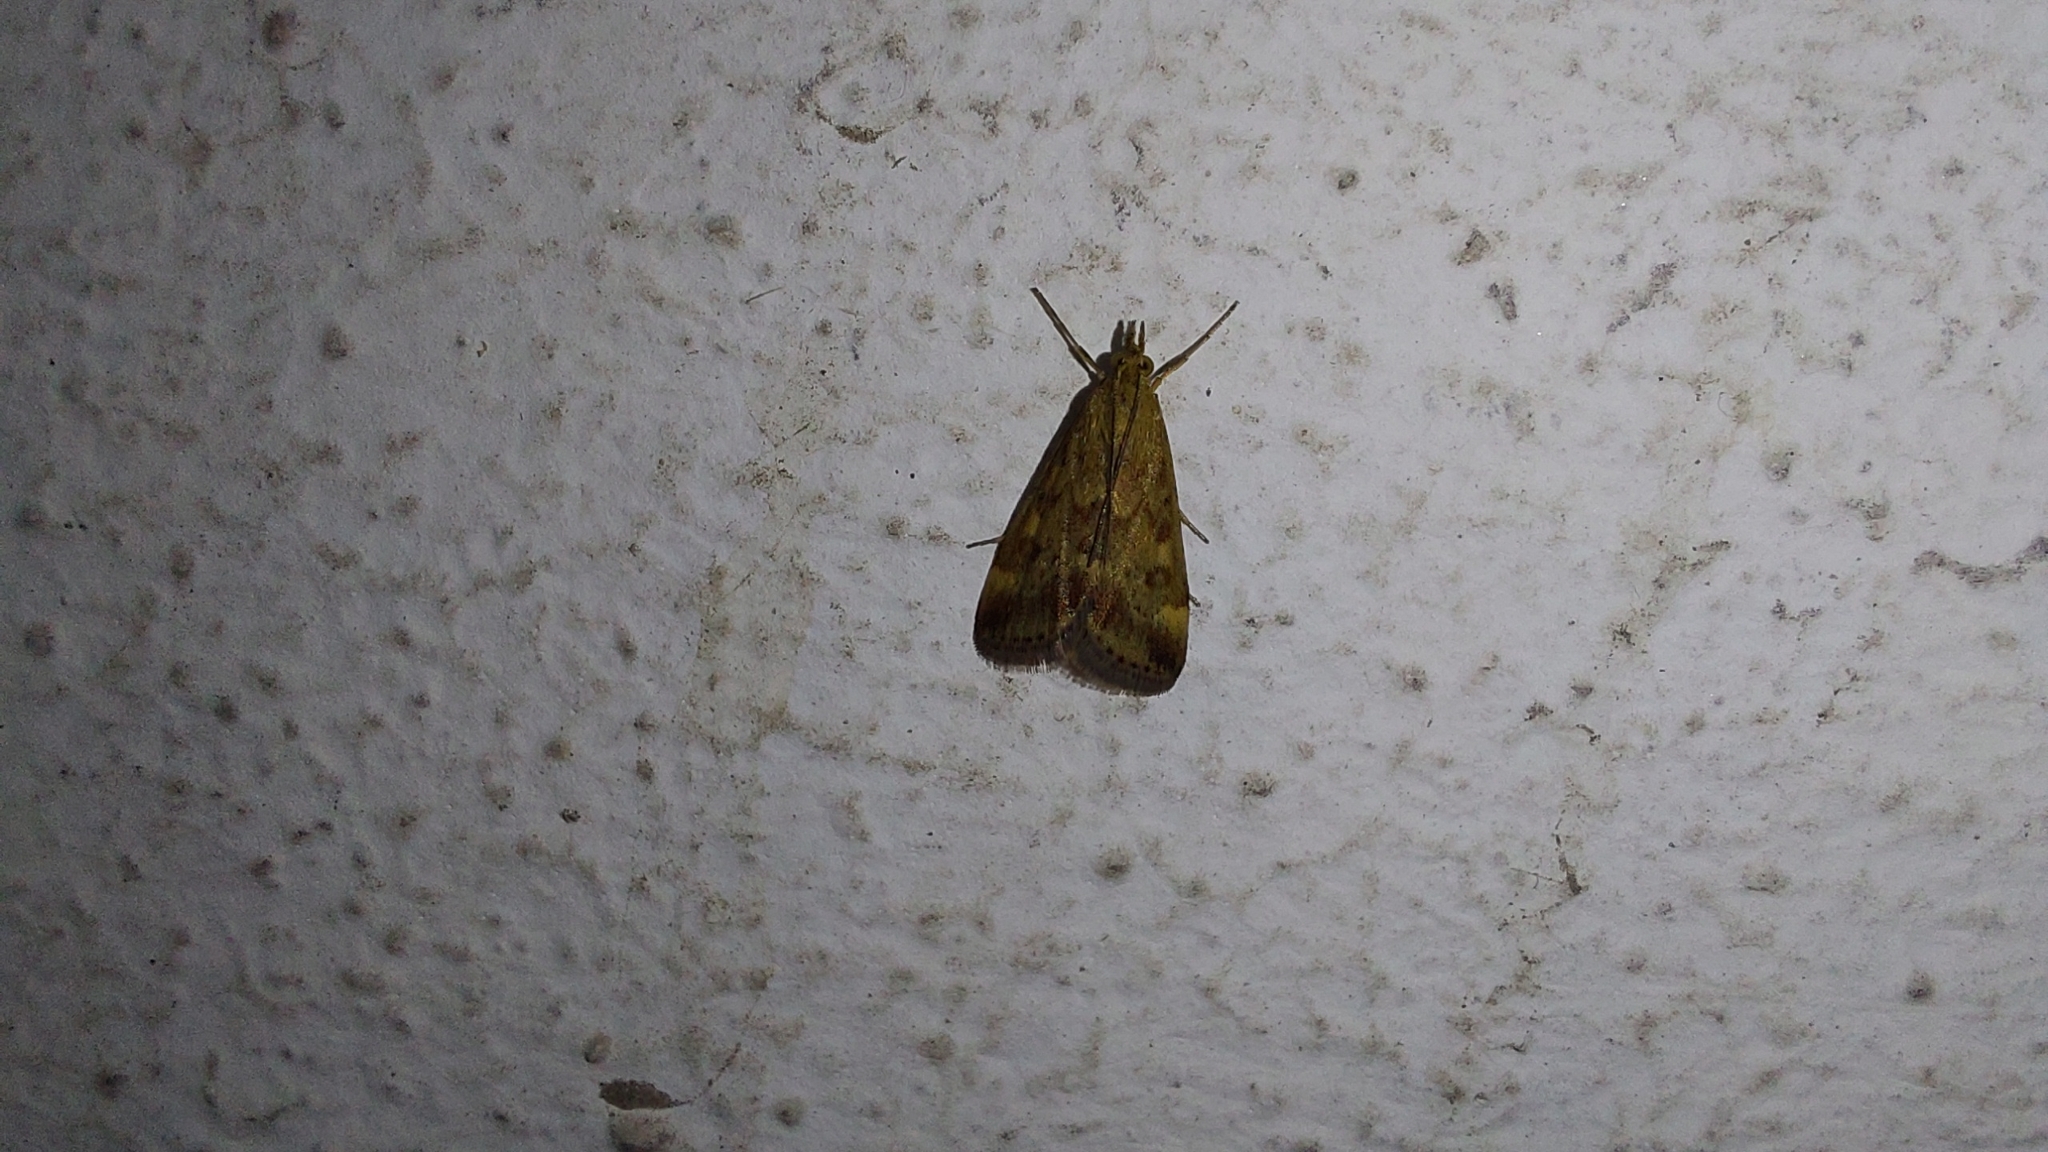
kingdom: Animalia
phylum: Arthropoda
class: Insecta
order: Lepidoptera
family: Crambidae
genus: Pyrausta
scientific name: Pyrausta despicata
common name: Straw-barred pearl
